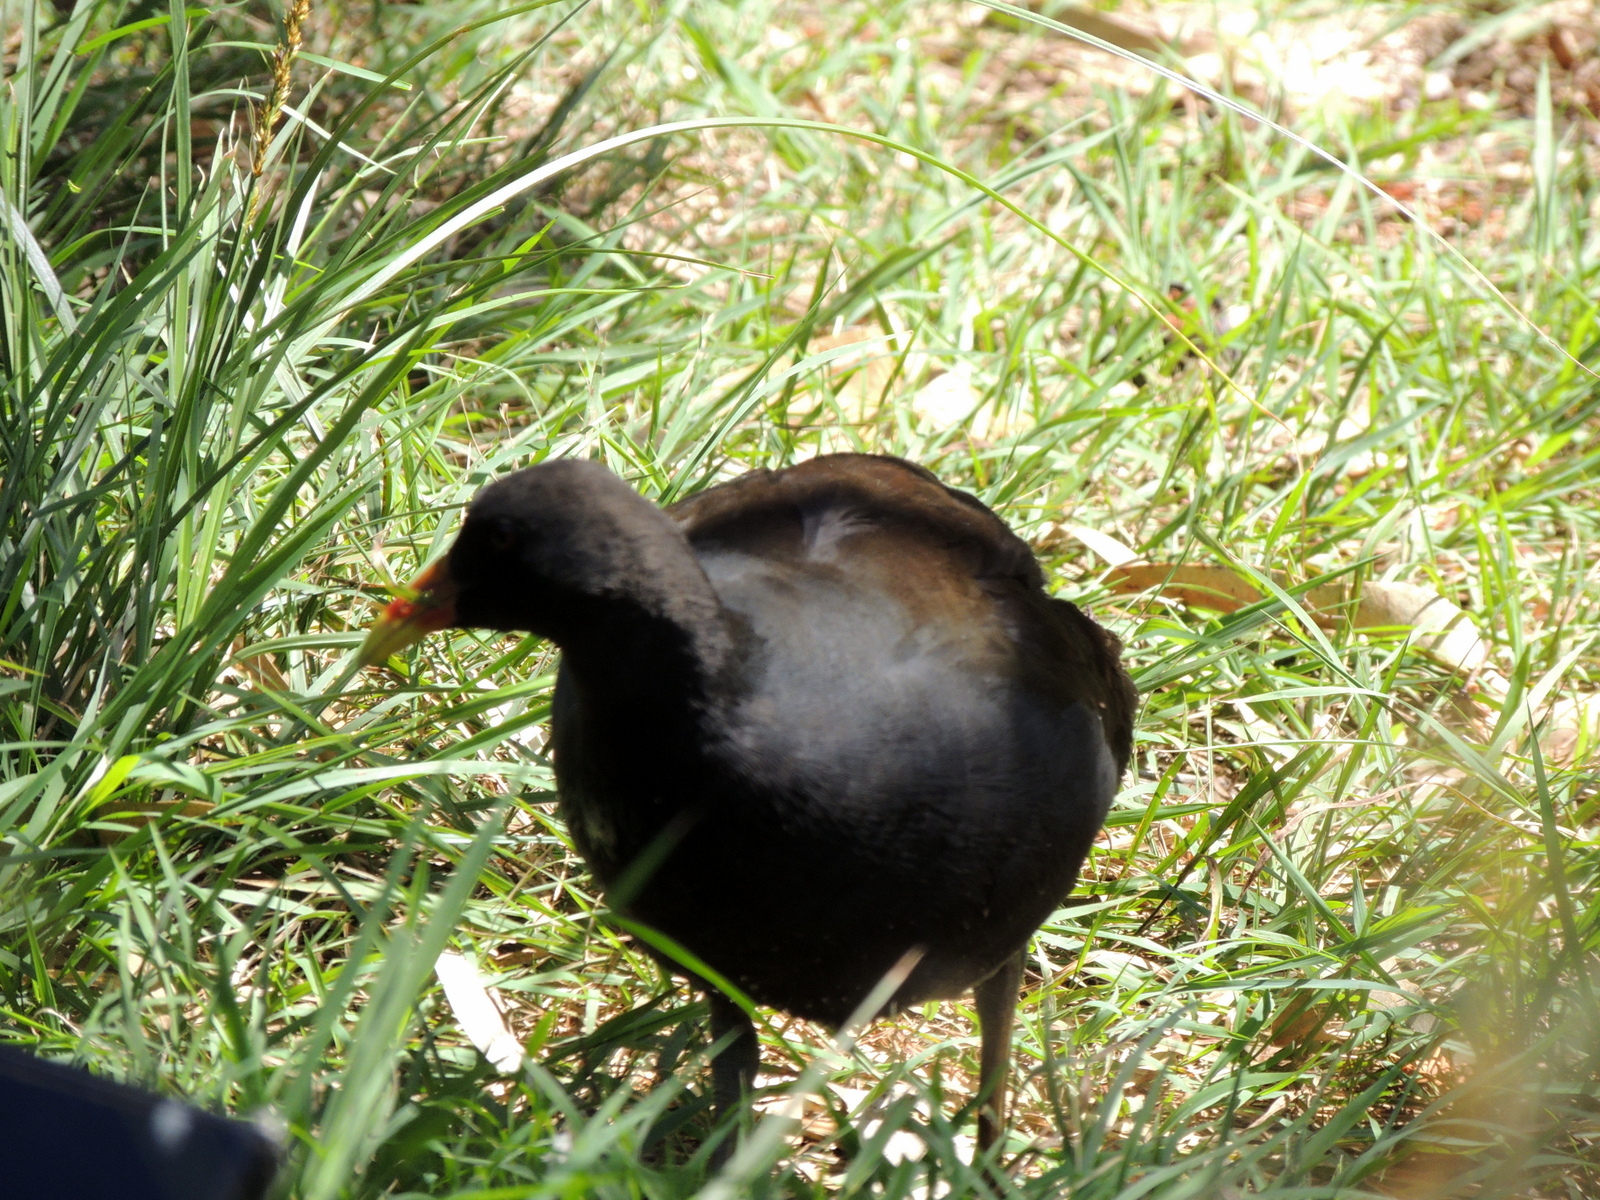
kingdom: Animalia
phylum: Chordata
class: Aves
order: Gruiformes
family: Rallidae
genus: Gallinula
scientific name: Gallinula tenebrosa
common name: Dusky moorhen
